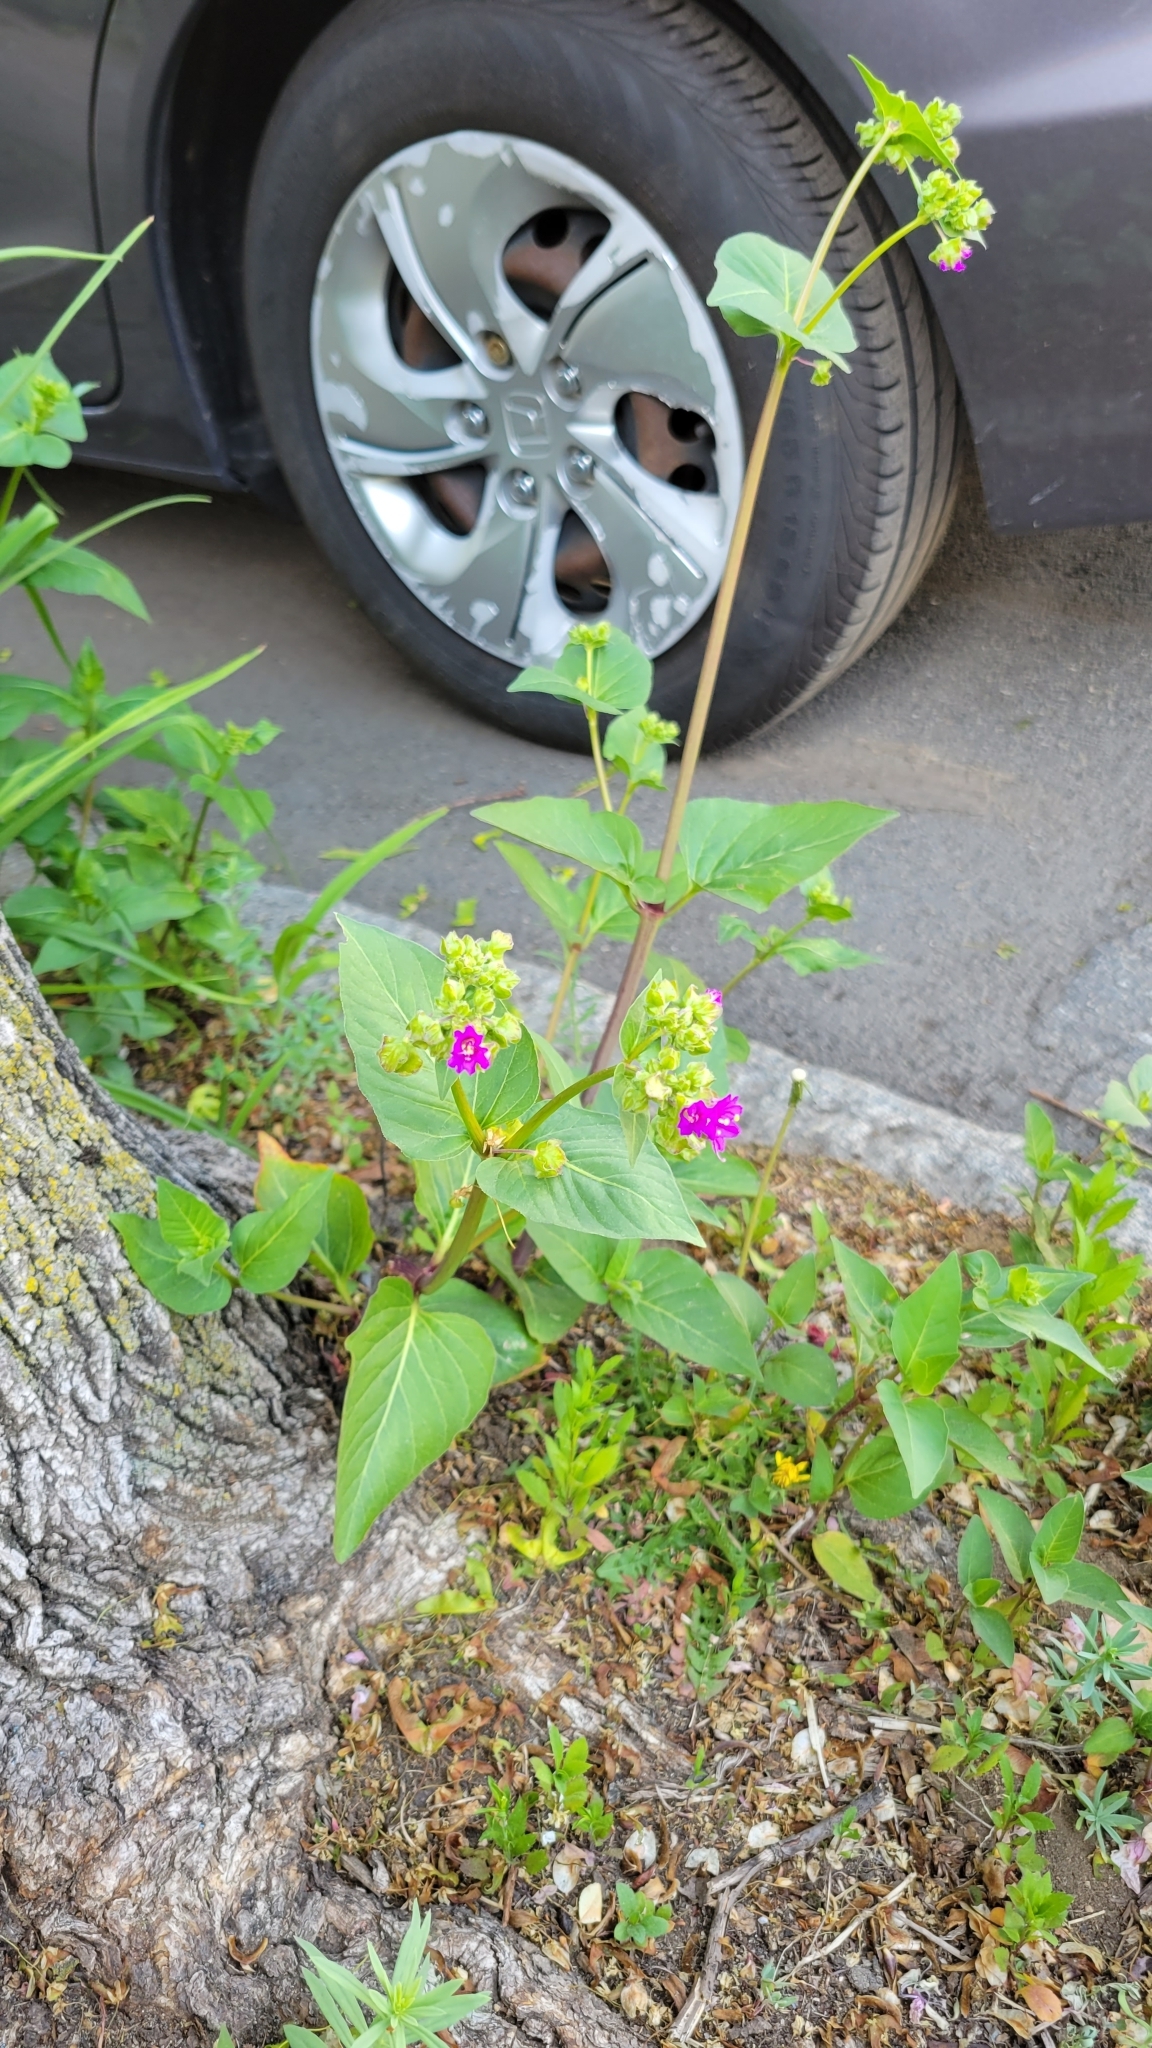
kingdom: Plantae
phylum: Tracheophyta
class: Magnoliopsida
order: Caryophyllales
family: Nyctaginaceae
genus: Mirabilis
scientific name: Mirabilis nyctaginea
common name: Umbrella wort
